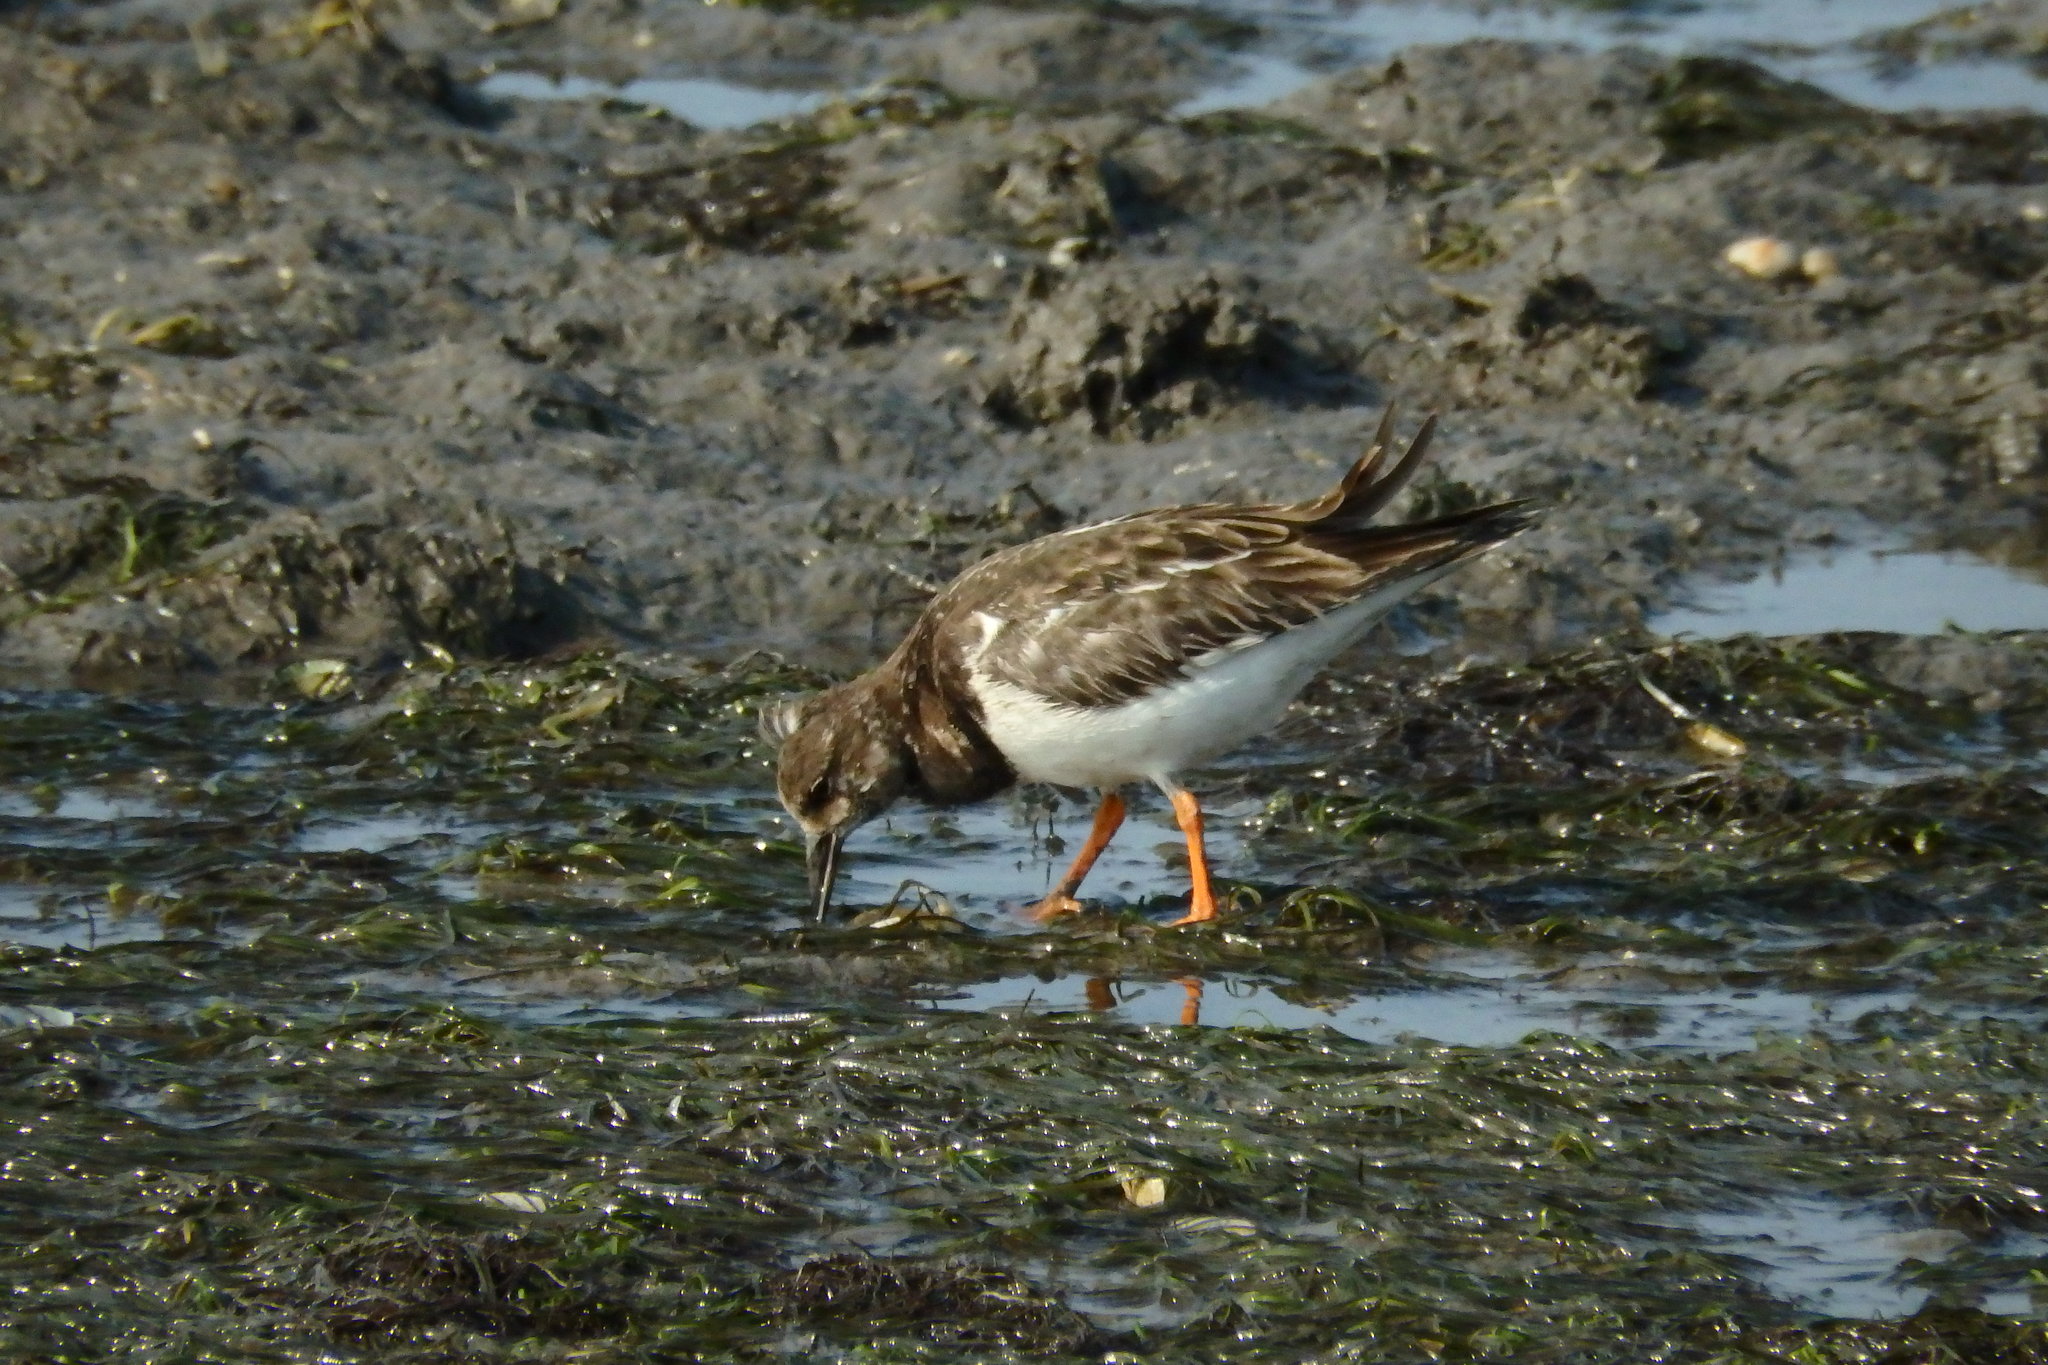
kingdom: Animalia
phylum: Chordata
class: Aves
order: Charadriiformes
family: Scolopacidae
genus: Arenaria
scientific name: Arenaria interpres
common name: Ruddy turnstone
